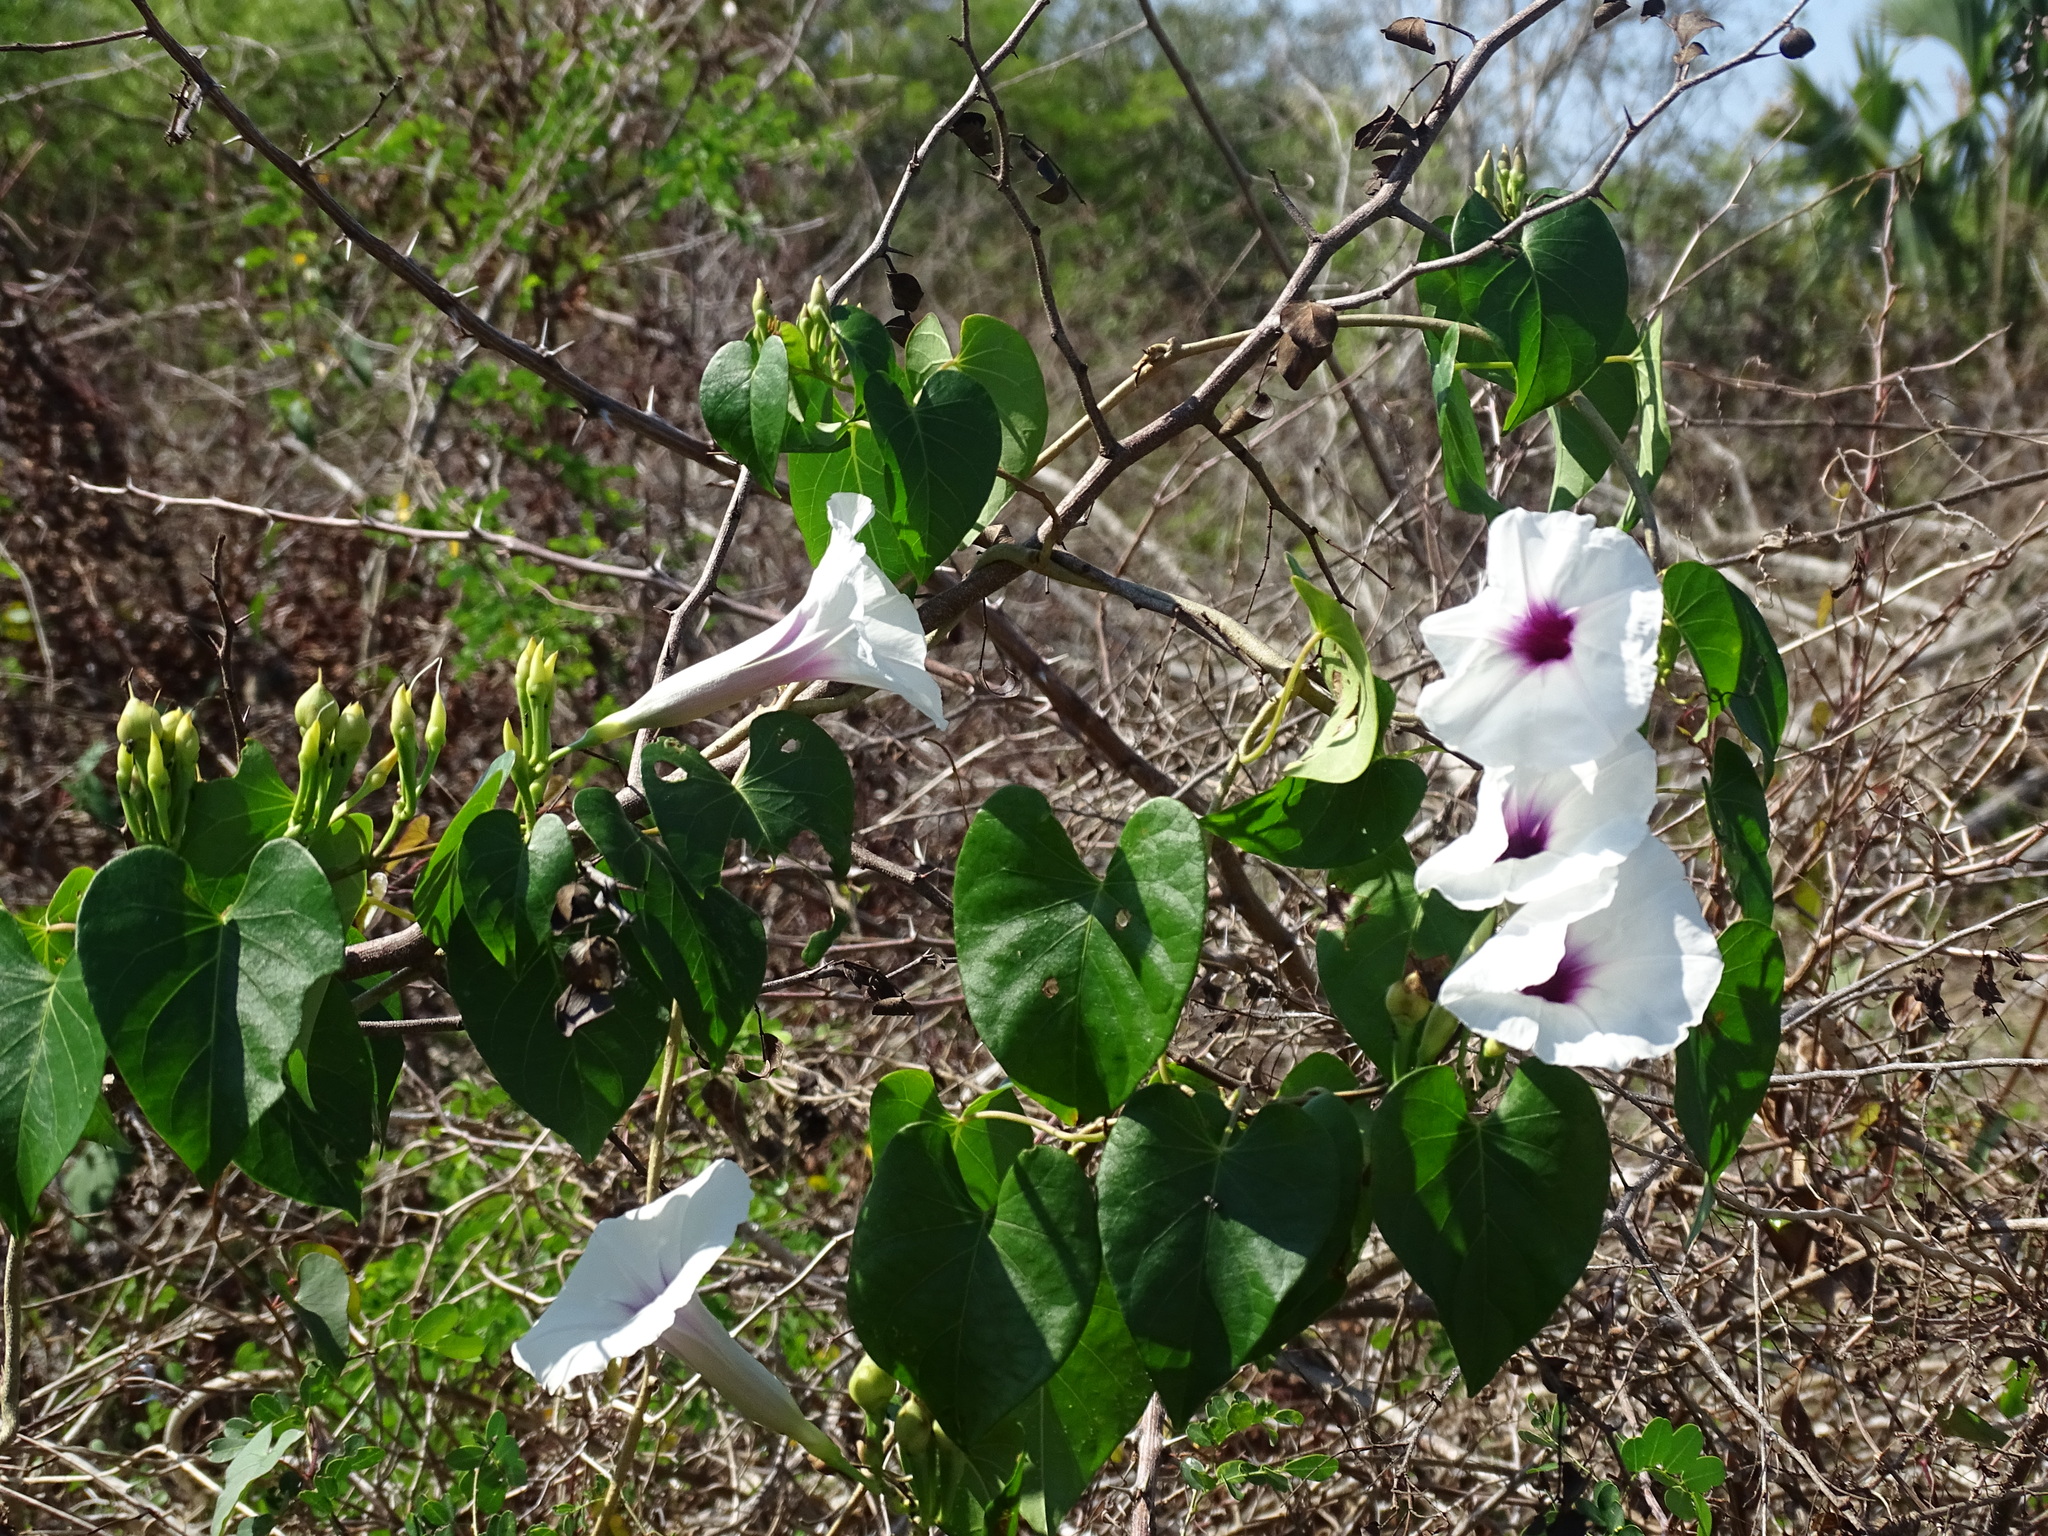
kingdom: Plantae
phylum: Tracheophyta
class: Magnoliopsida
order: Solanales
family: Convolvulaceae
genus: Ipomoea
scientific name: Ipomoea anisomeres
